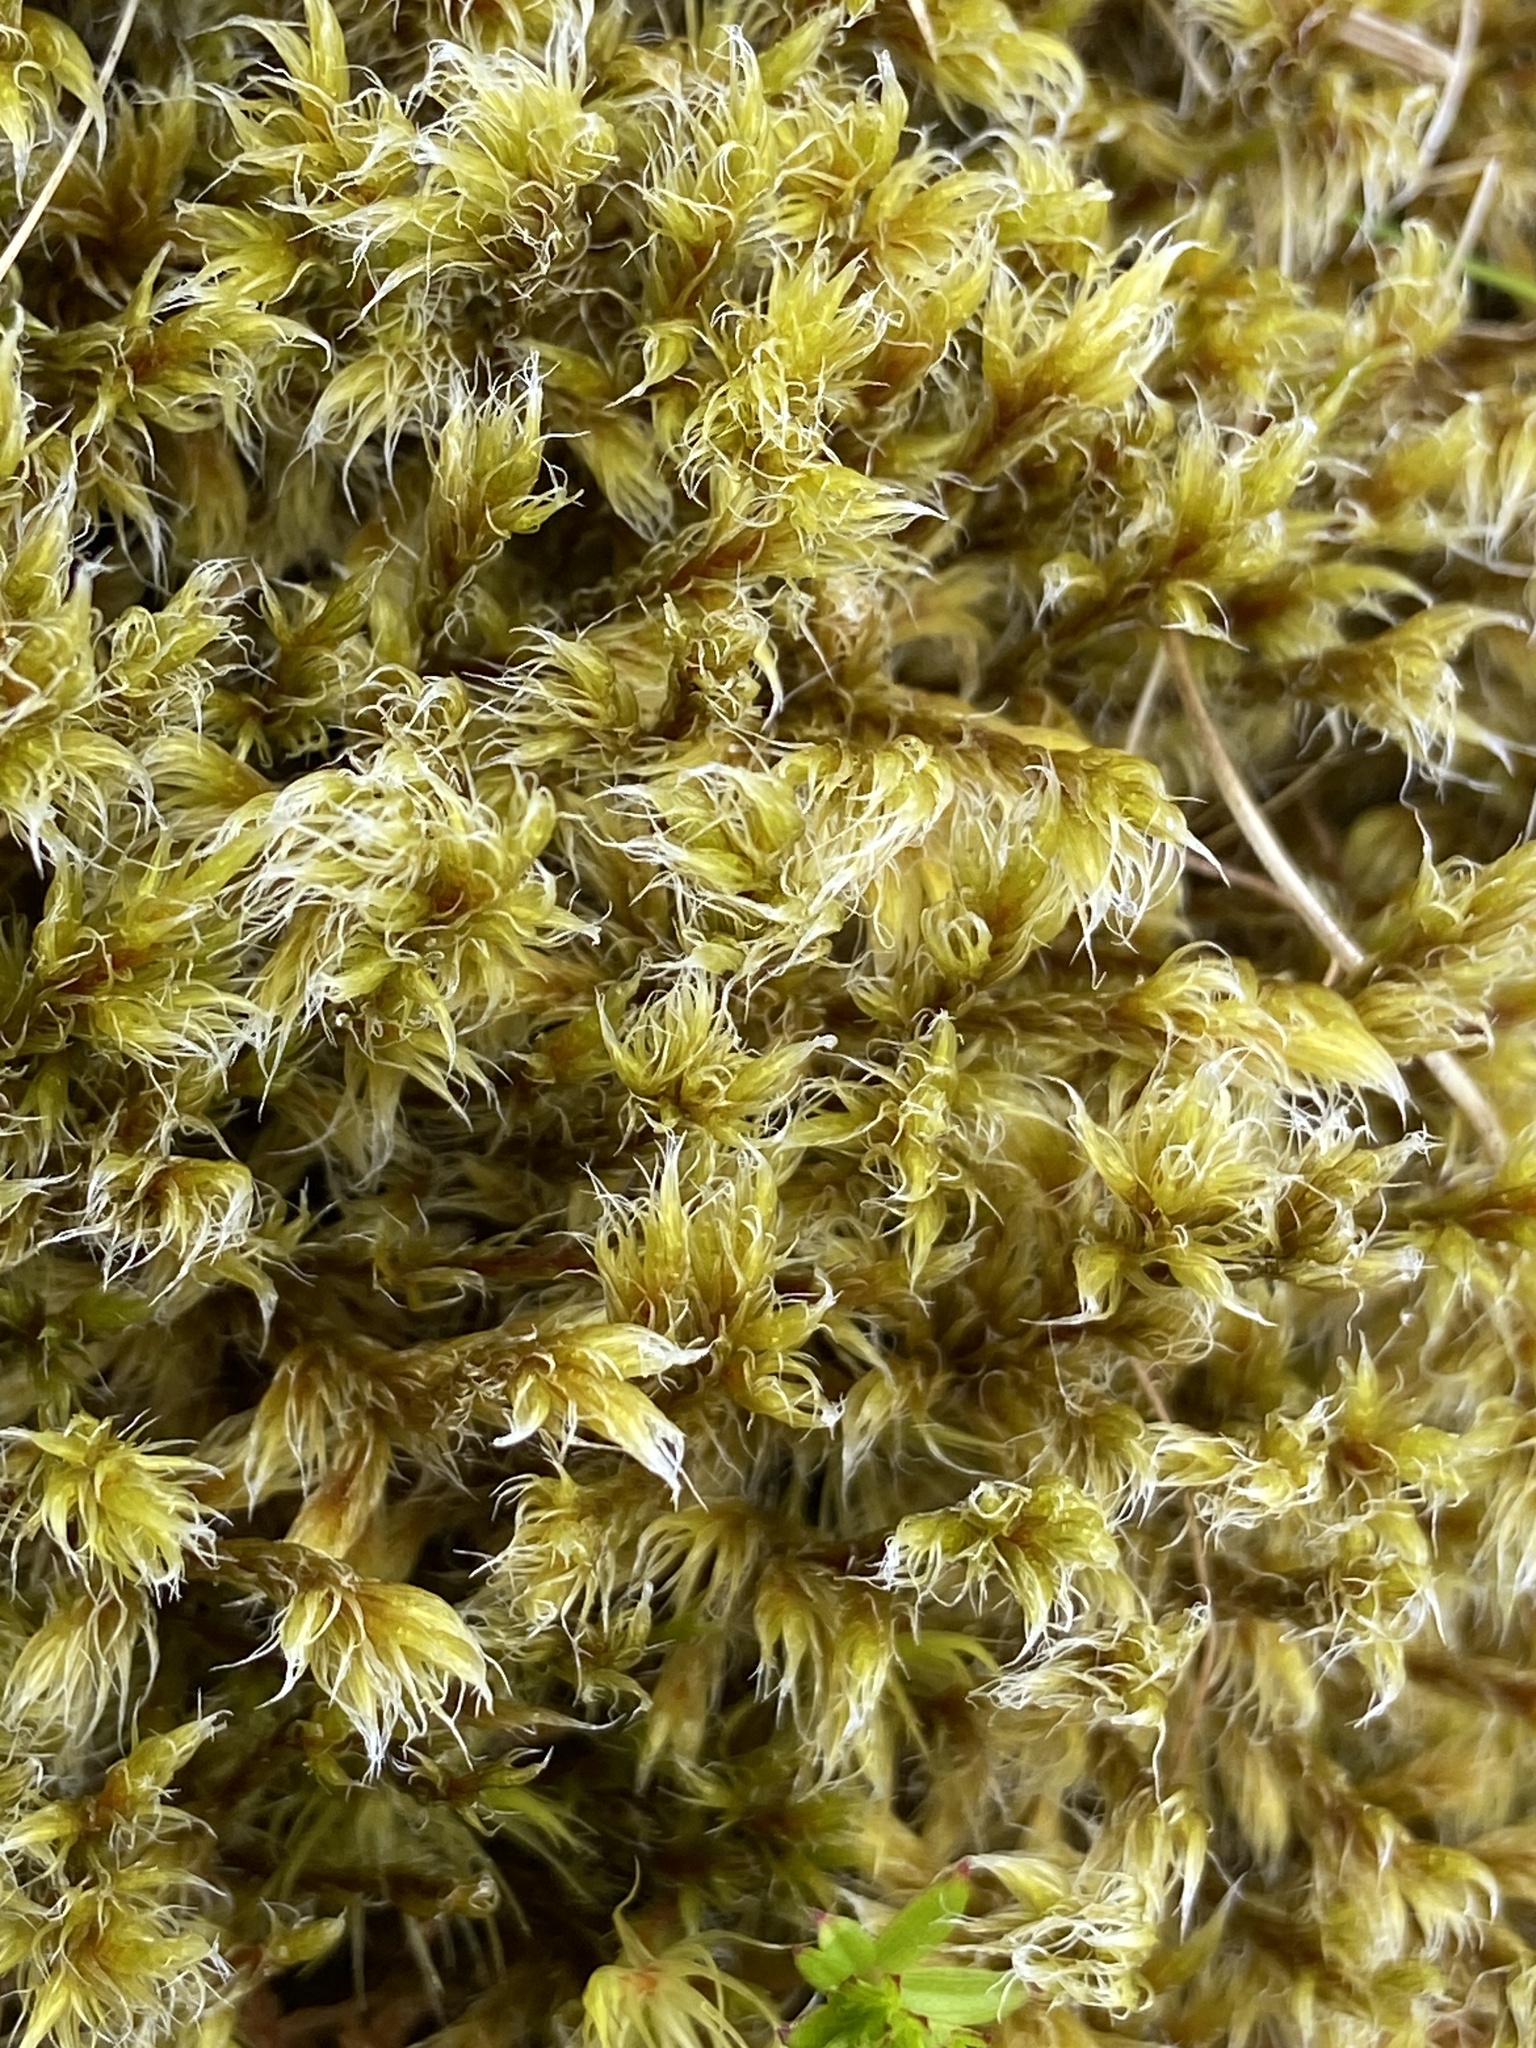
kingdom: Plantae
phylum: Bryophyta
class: Bryopsida
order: Grimmiales
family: Grimmiaceae
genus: Racomitrium
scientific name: Racomitrium lanuginosum
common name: Hoary rock moss
